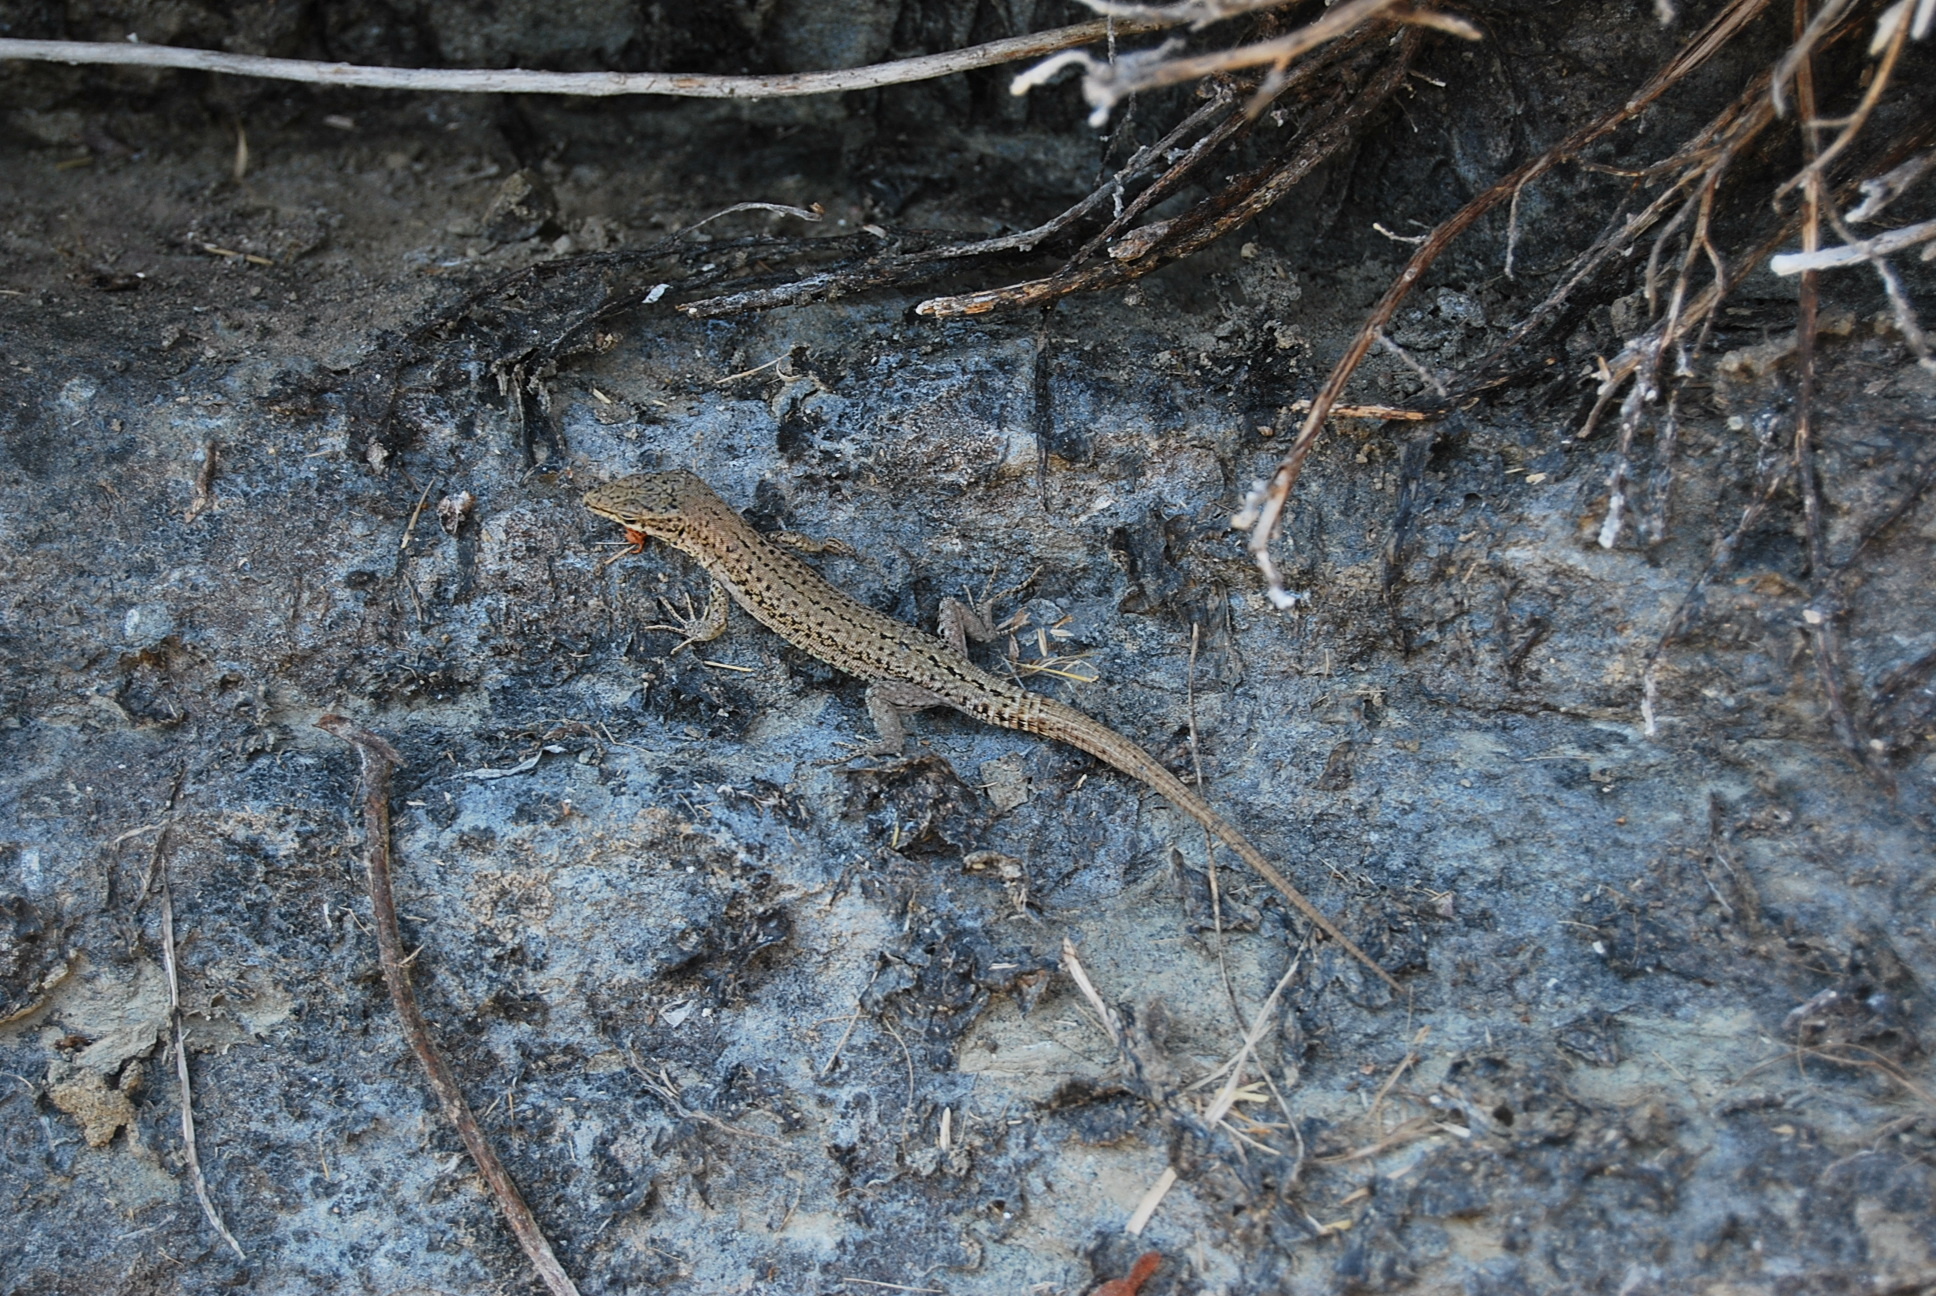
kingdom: Animalia
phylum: Chordata
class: Squamata
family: Lacertidae
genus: Podarcis
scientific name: Podarcis liolepis
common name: Catalonian wall lizard
